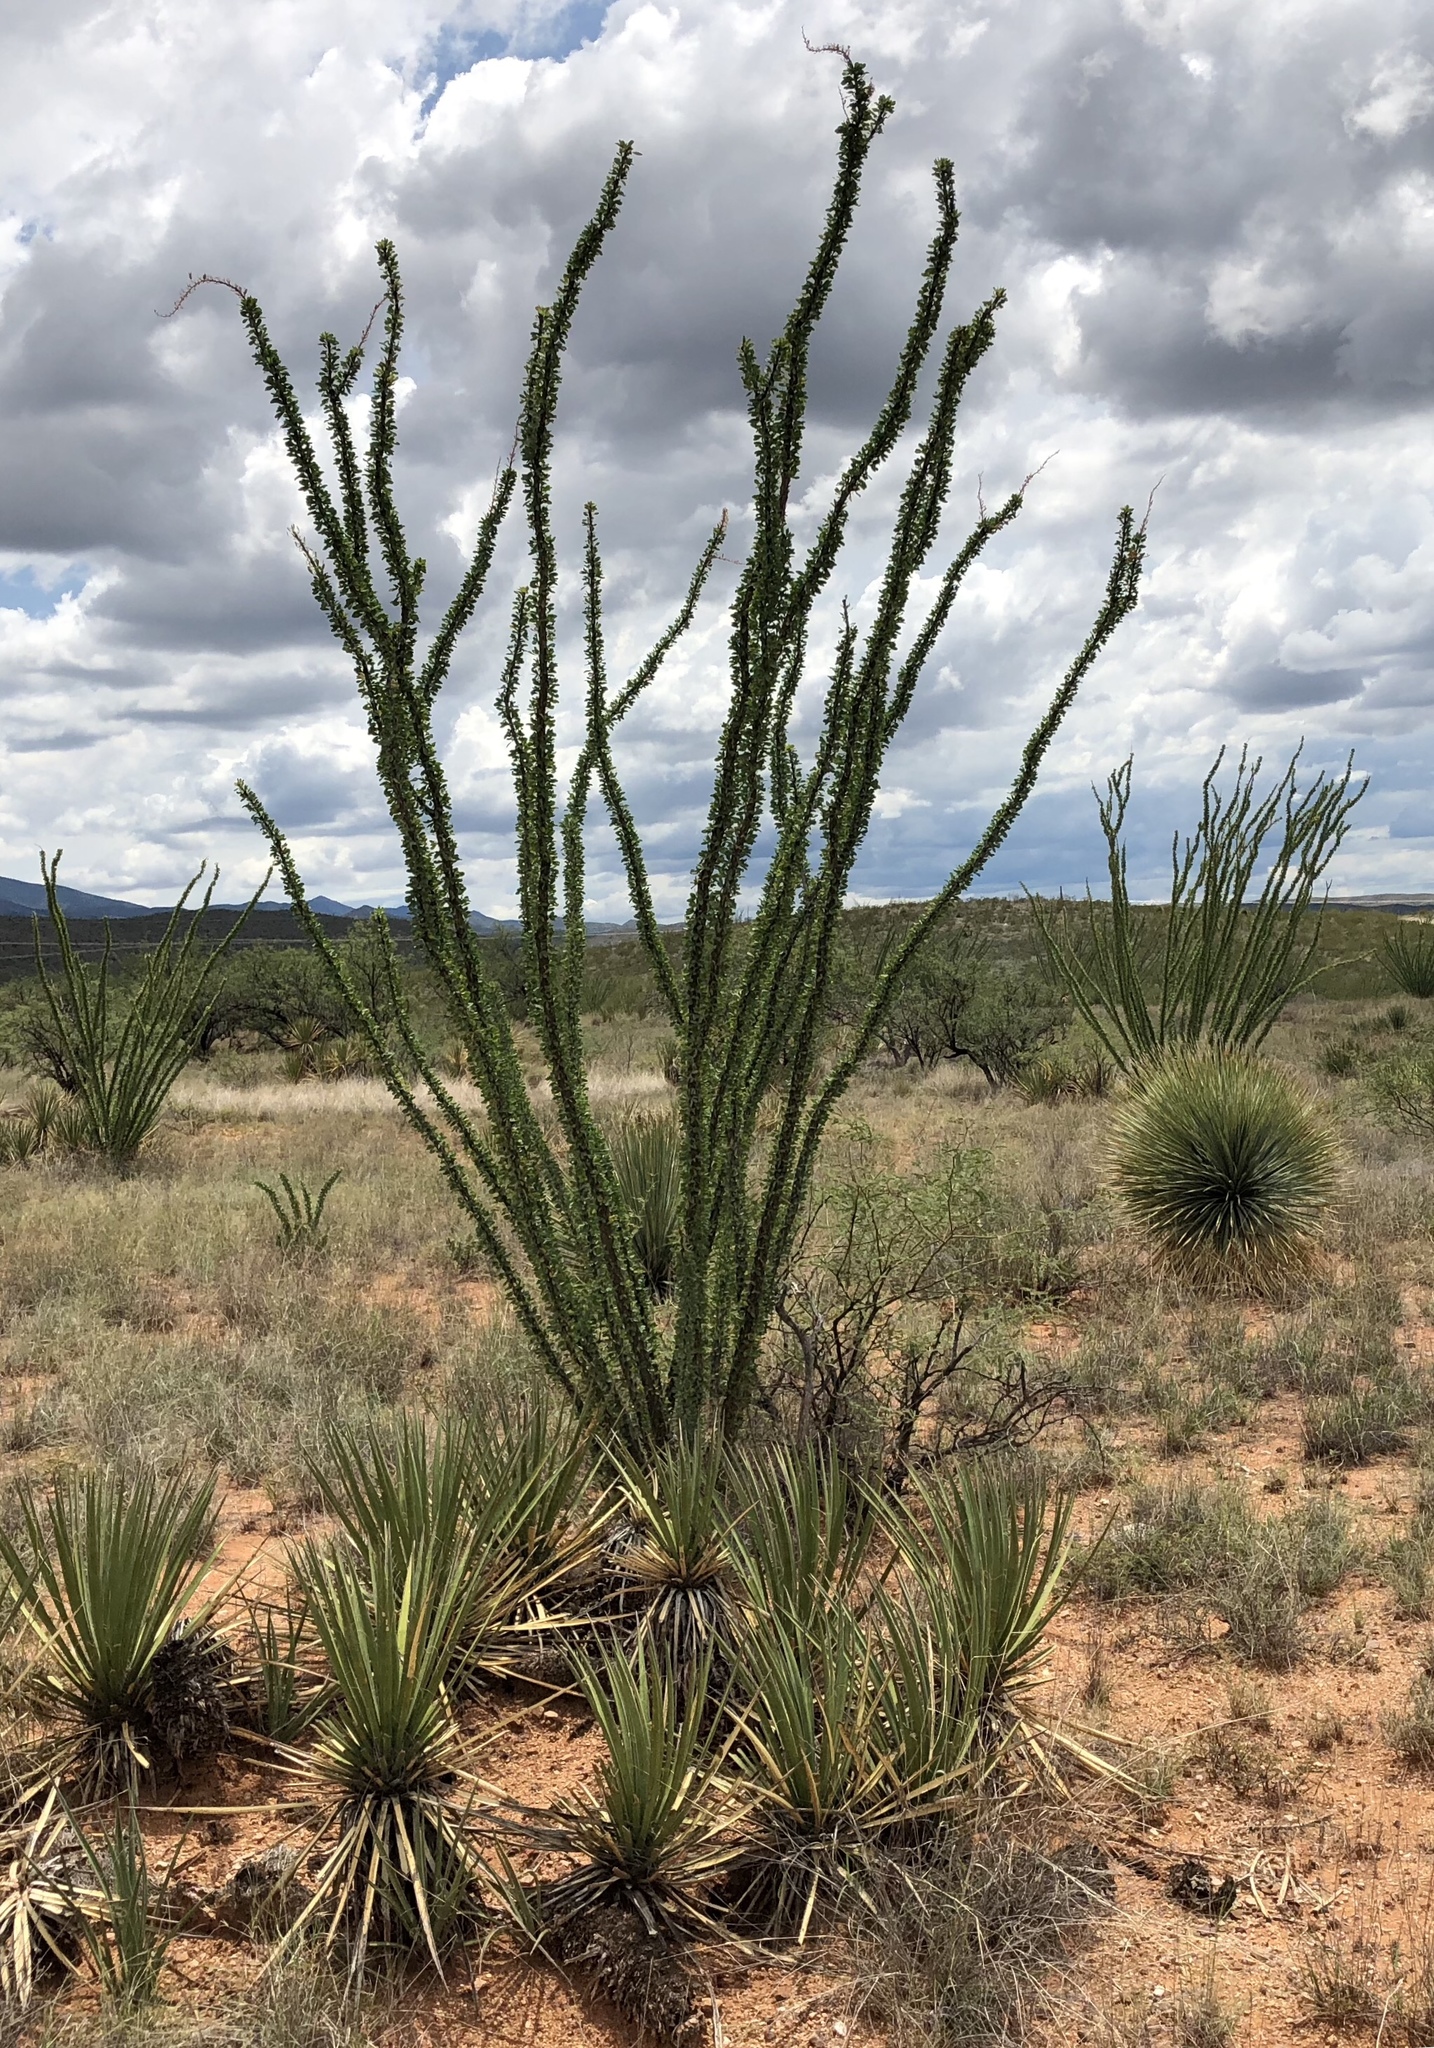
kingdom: Plantae
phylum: Tracheophyta
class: Magnoliopsida
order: Ericales
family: Fouquieriaceae
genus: Fouquieria
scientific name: Fouquieria splendens
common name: Vine-cactus
